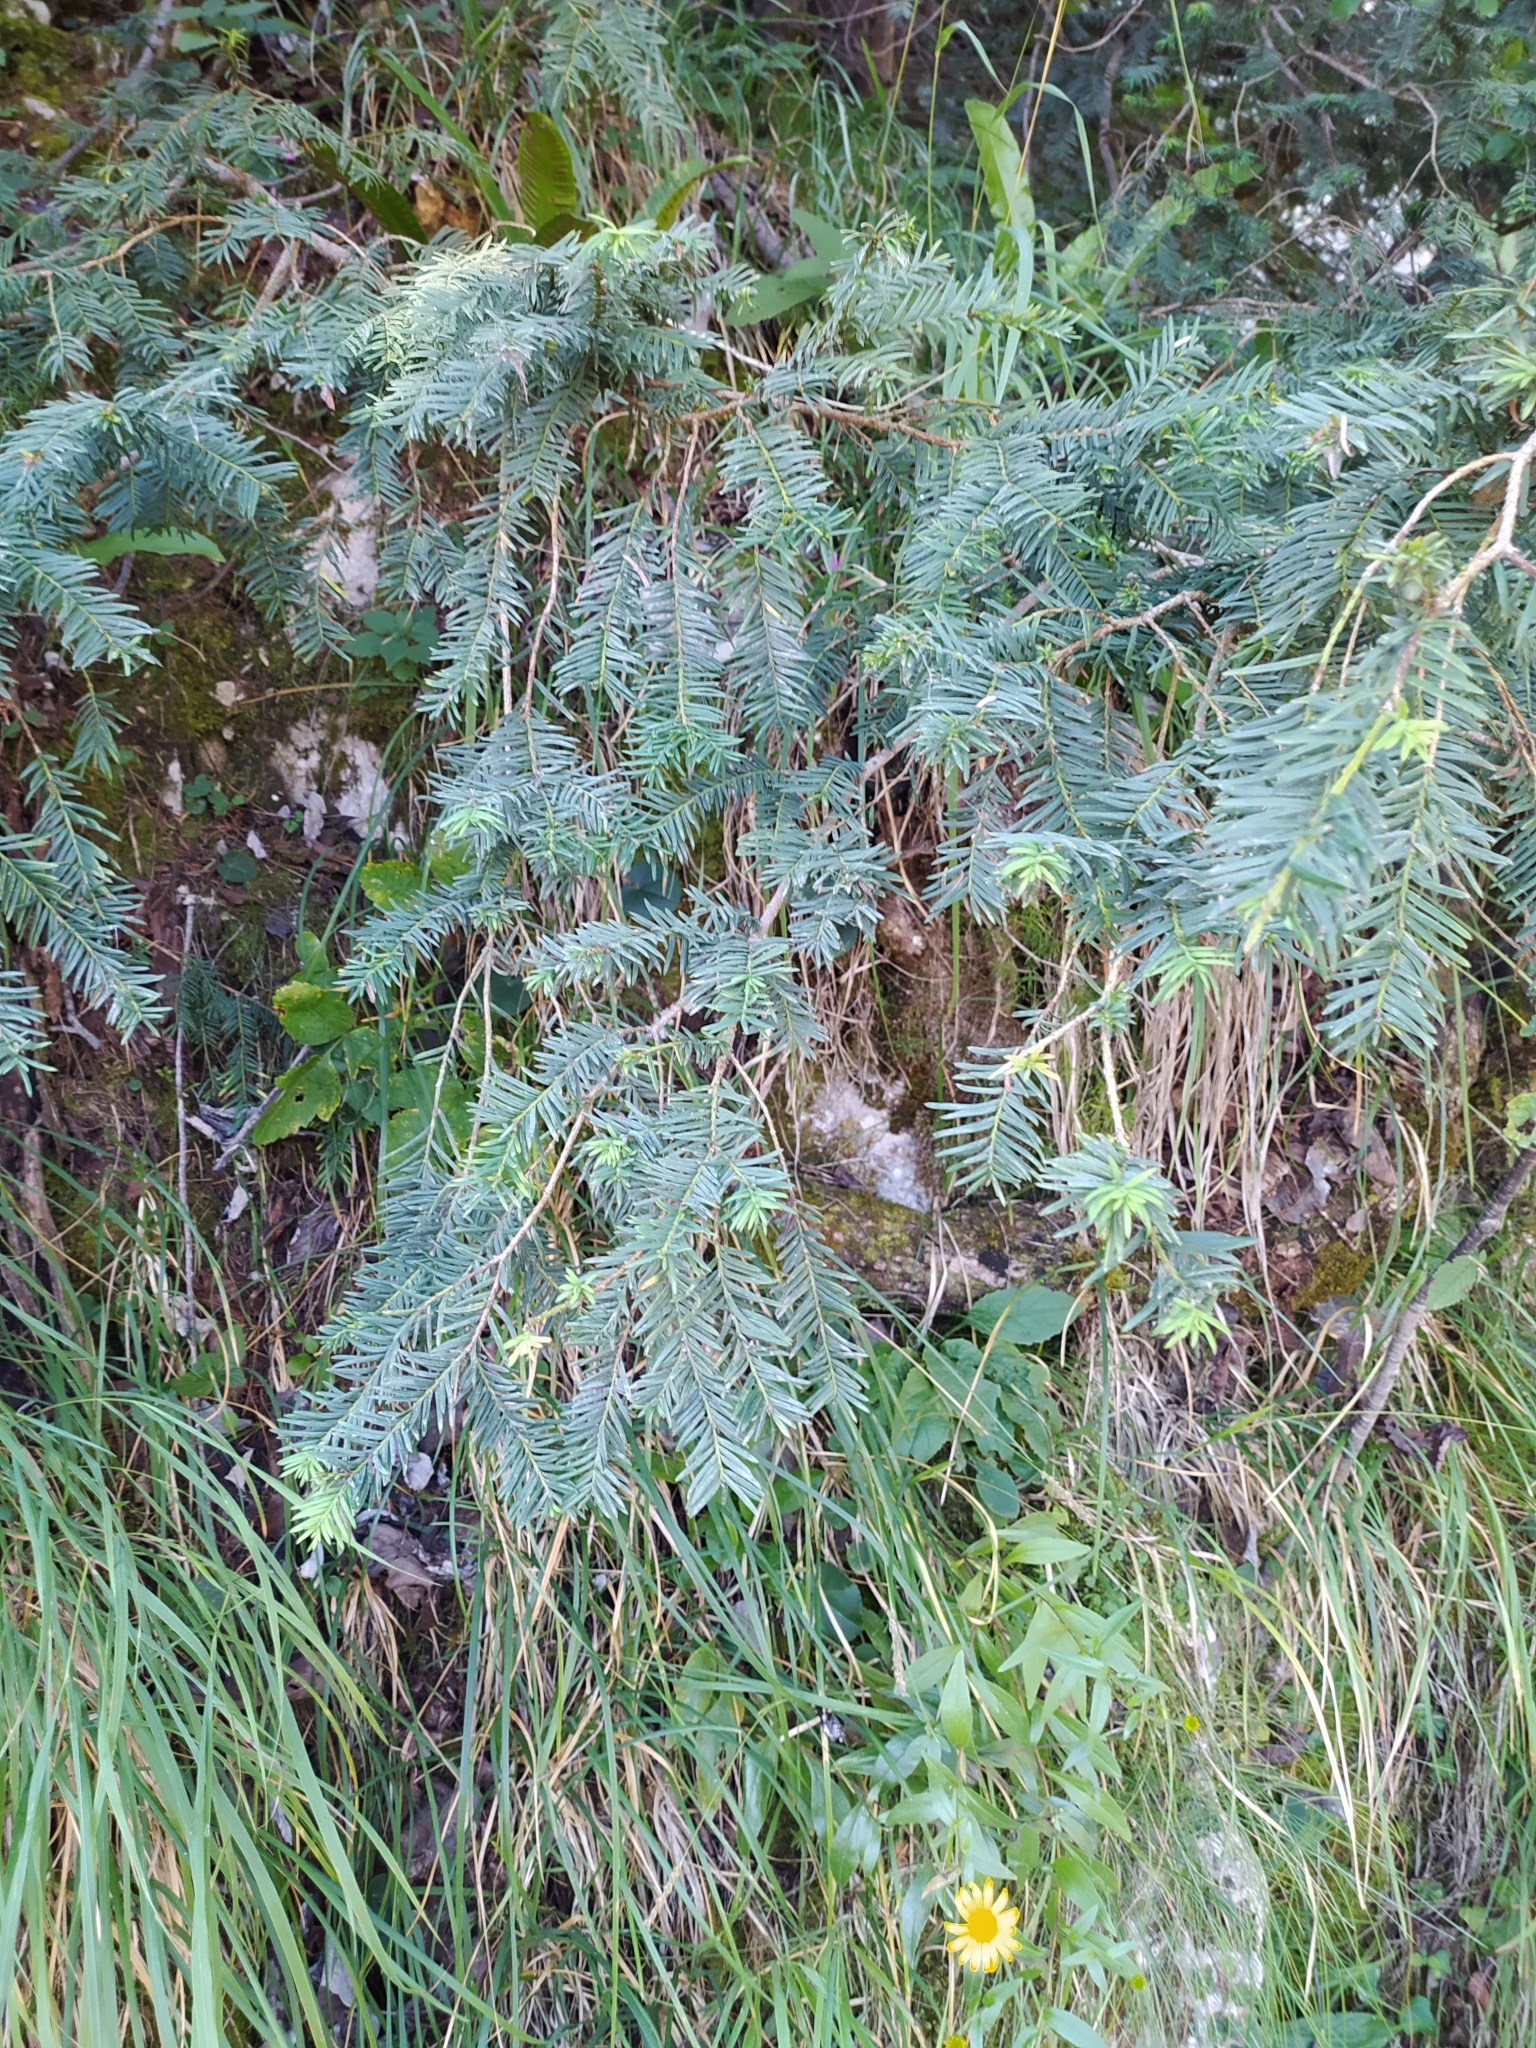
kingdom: Plantae
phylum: Tracheophyta
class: Pinopsida
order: Pinales
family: Taxaceae
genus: Taxus
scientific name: Taxus baccata
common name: Yew
